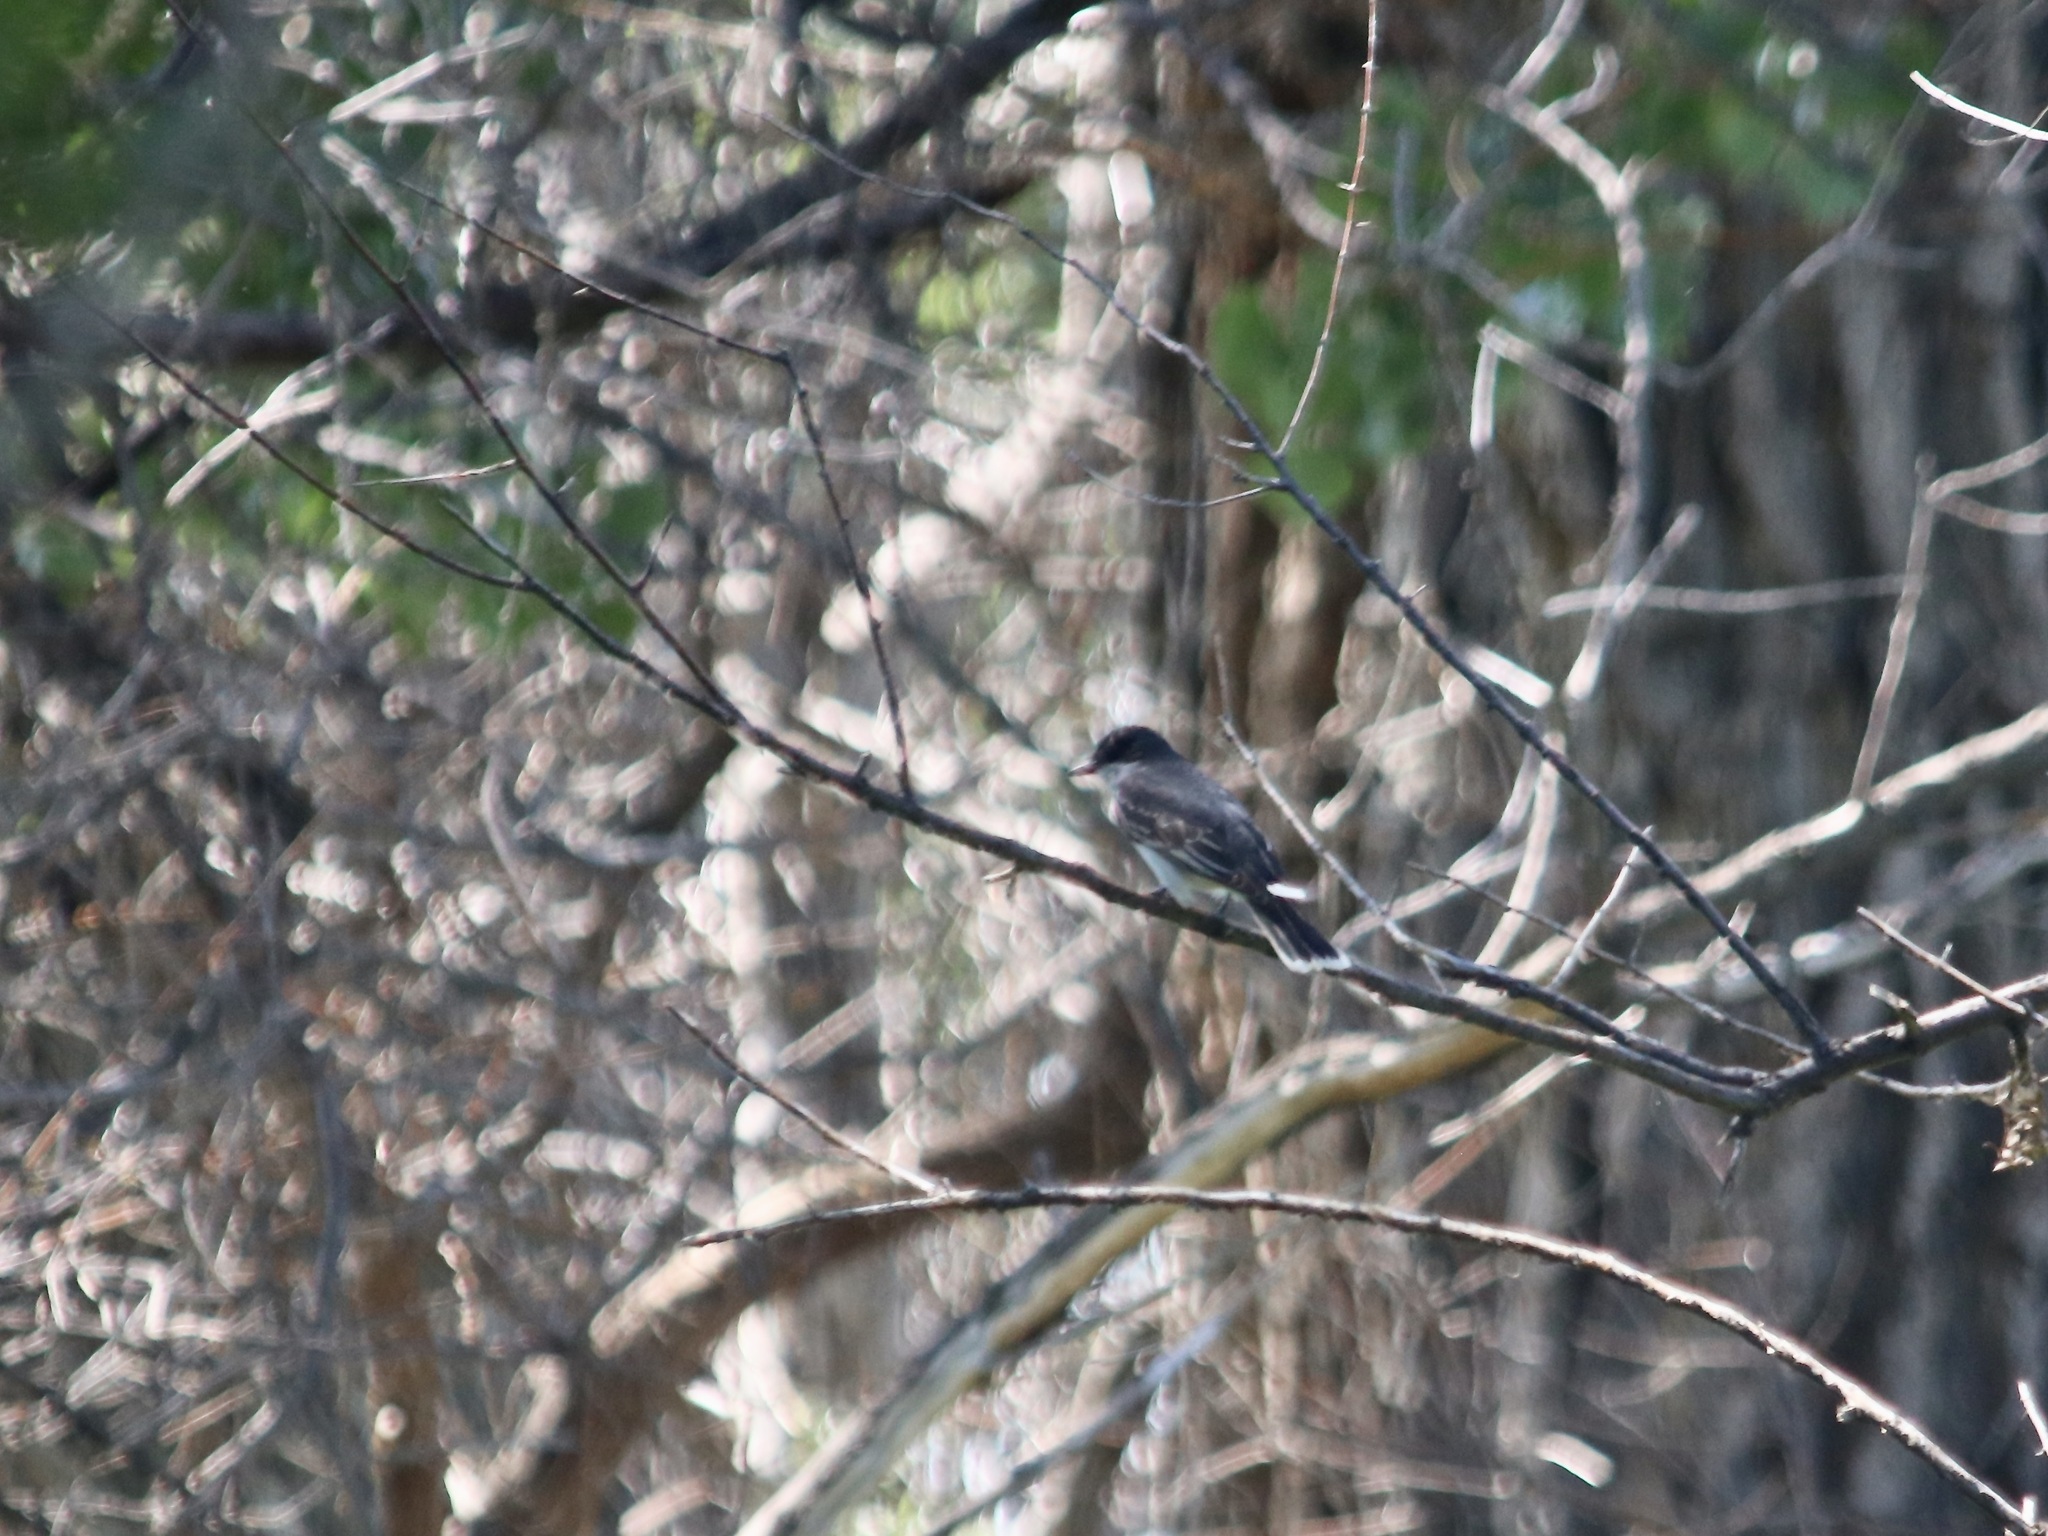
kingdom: Animalia
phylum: Chordata
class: Aves
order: Passeriformes
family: Tyrannidae
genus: Tyrannus
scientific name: Tyrannus tyrannus
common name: Eastern kingbird
